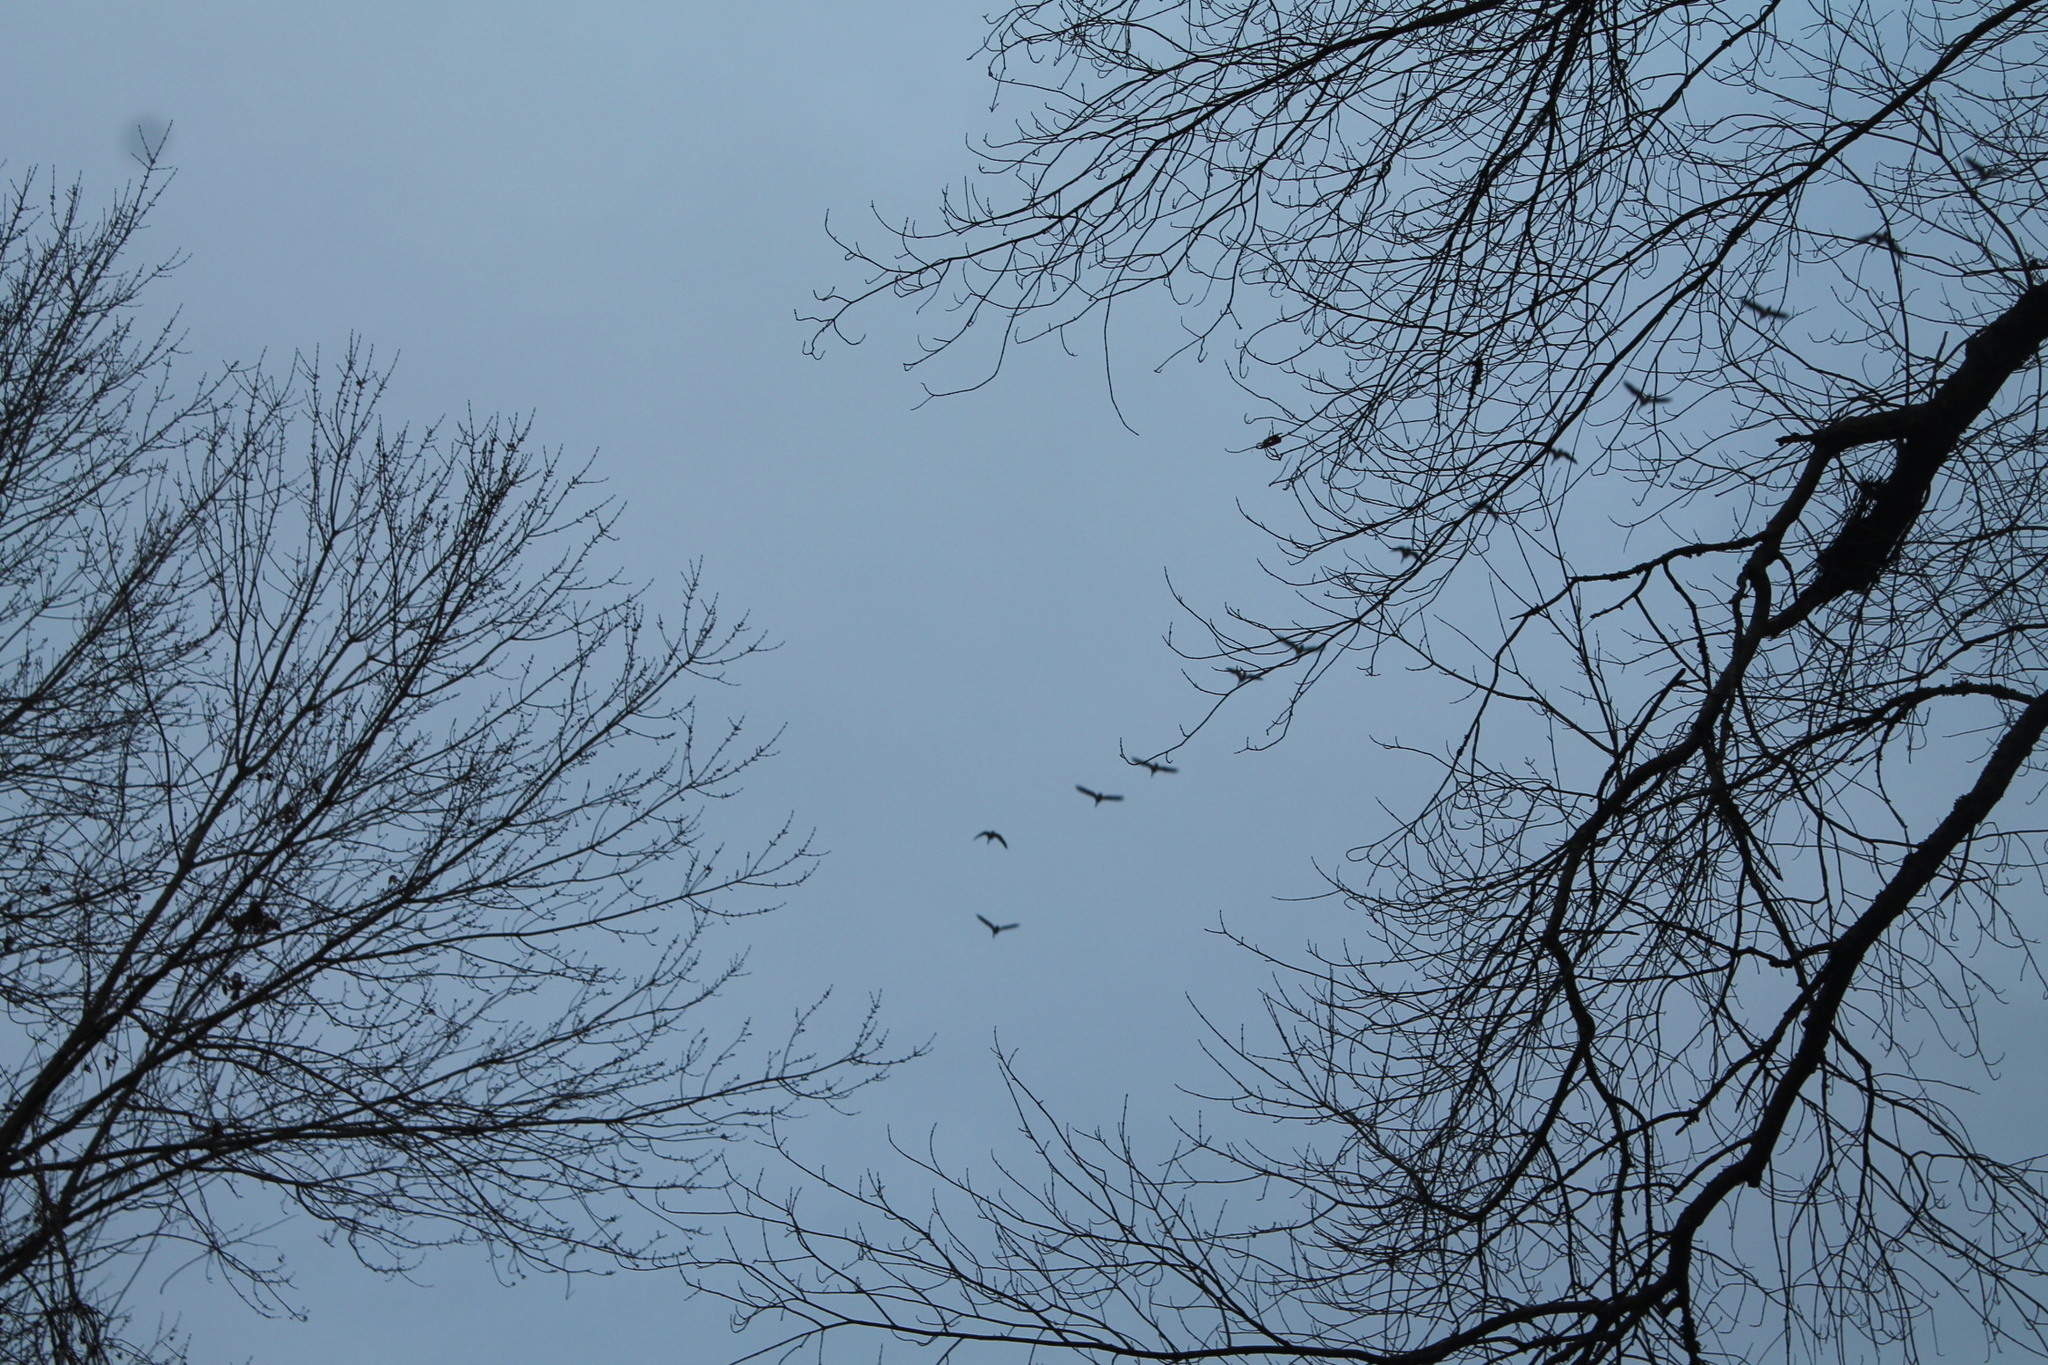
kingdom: Animalia
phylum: Chordata
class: Aves
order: Anseriformes
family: Anatidae
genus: Branta
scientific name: Branta canadensis
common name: Canada goose
